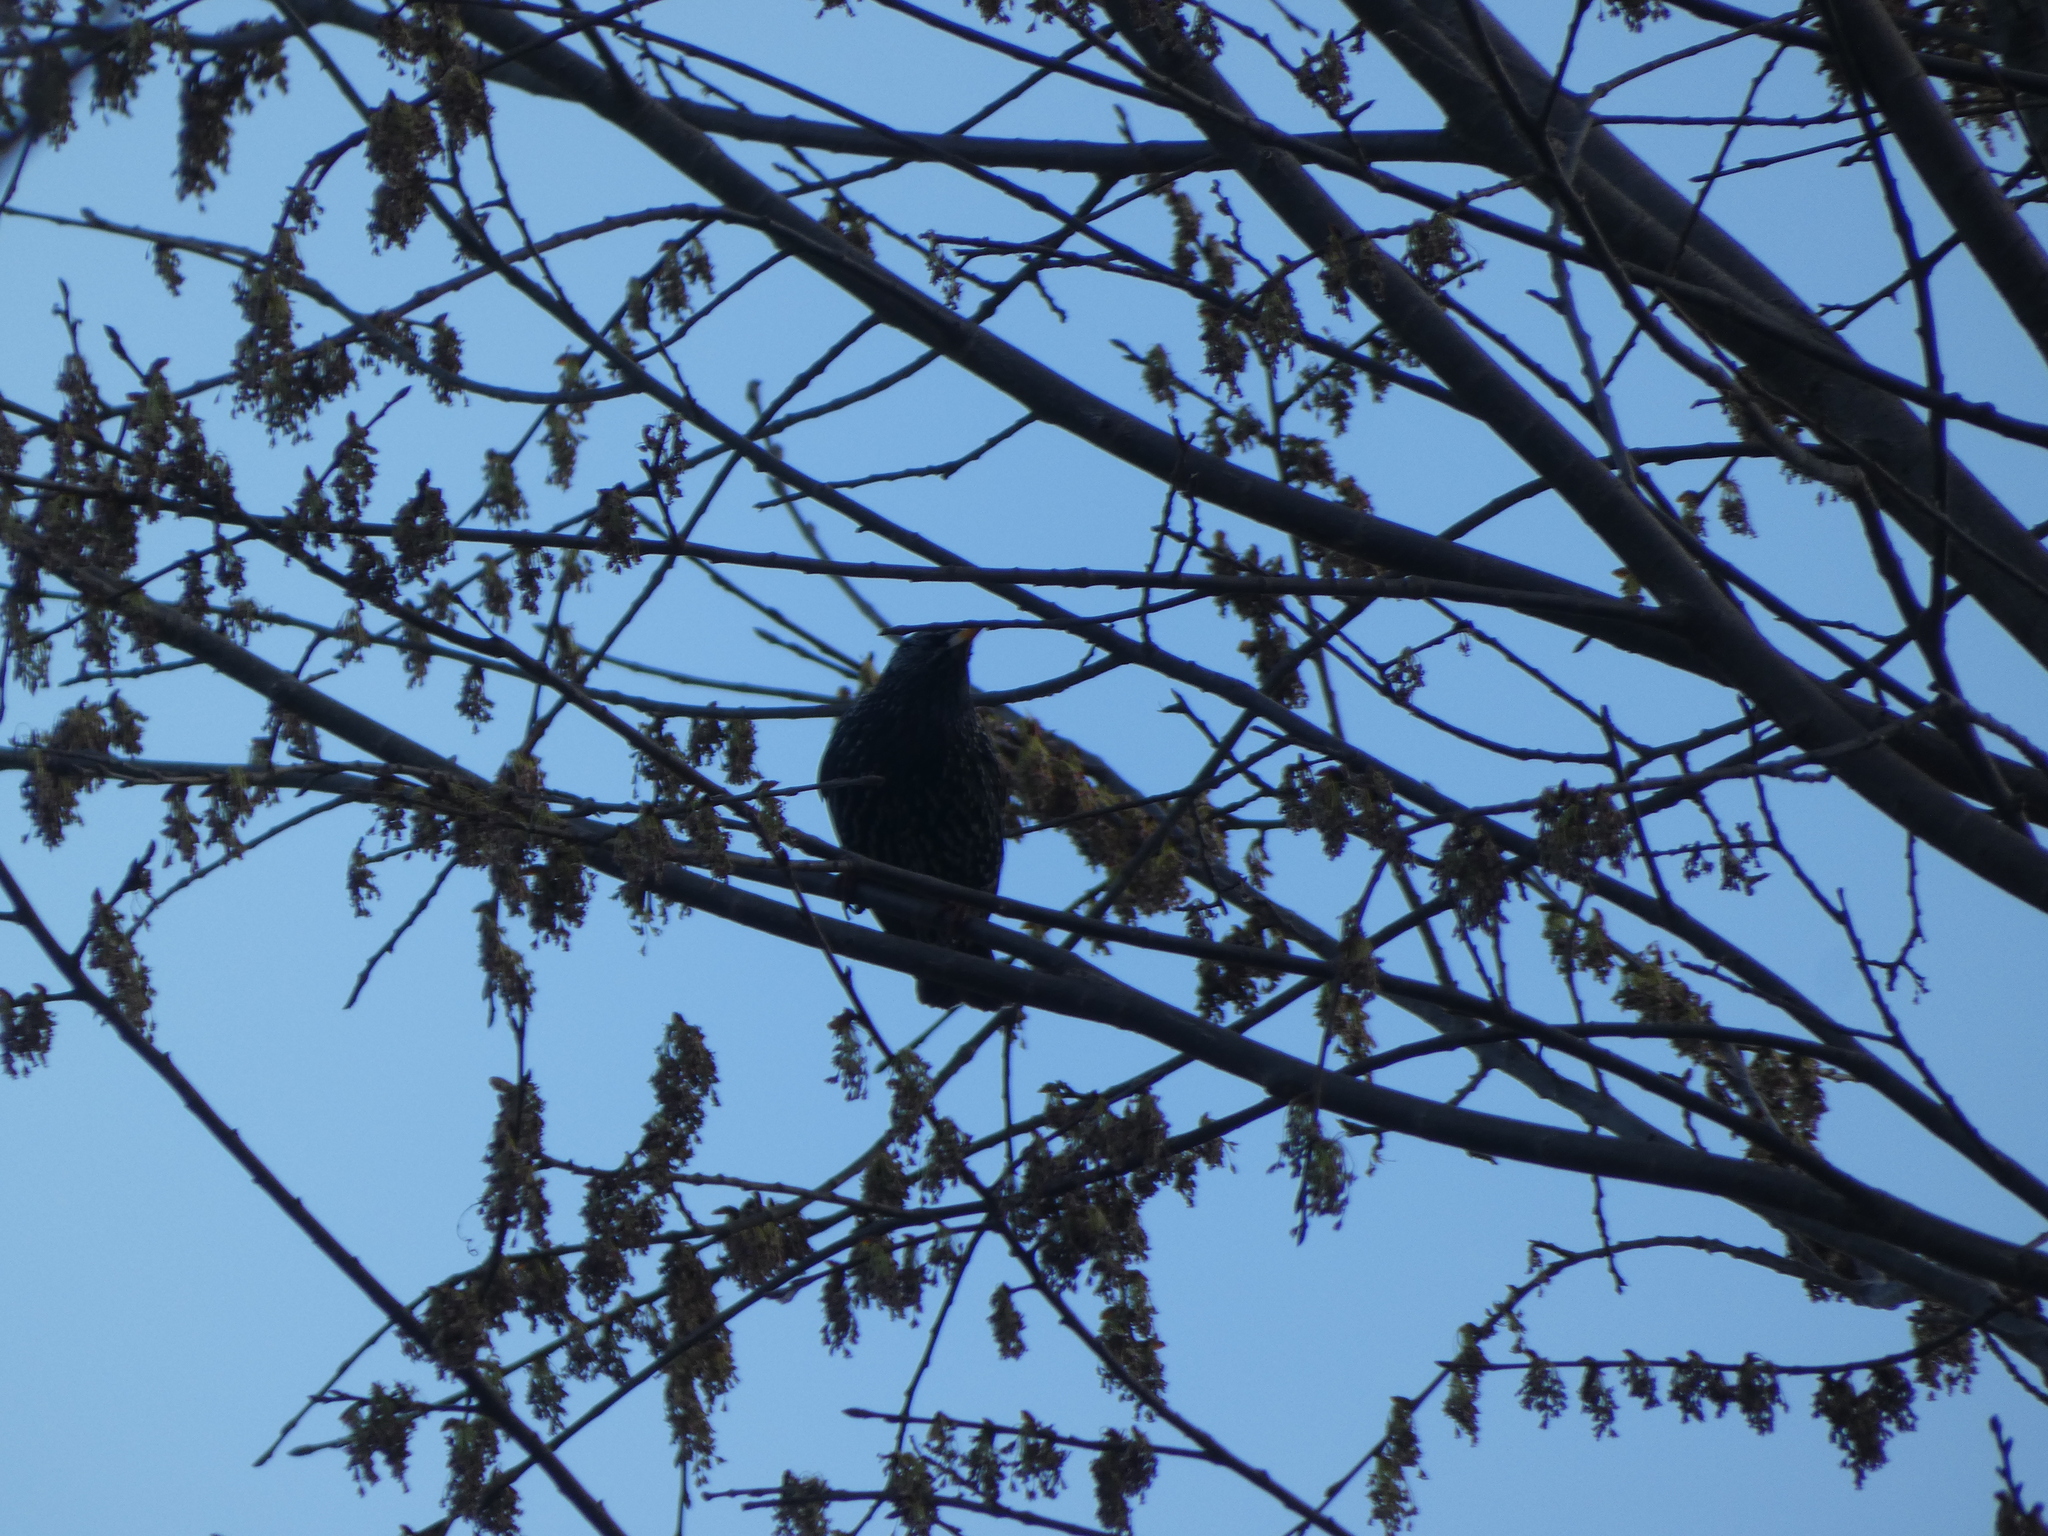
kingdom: Animalia
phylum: Chordata
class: Aves
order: Passeriformes
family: Sturnidae
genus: Sturnus
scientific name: Sturnus vulgaris
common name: Common starling
